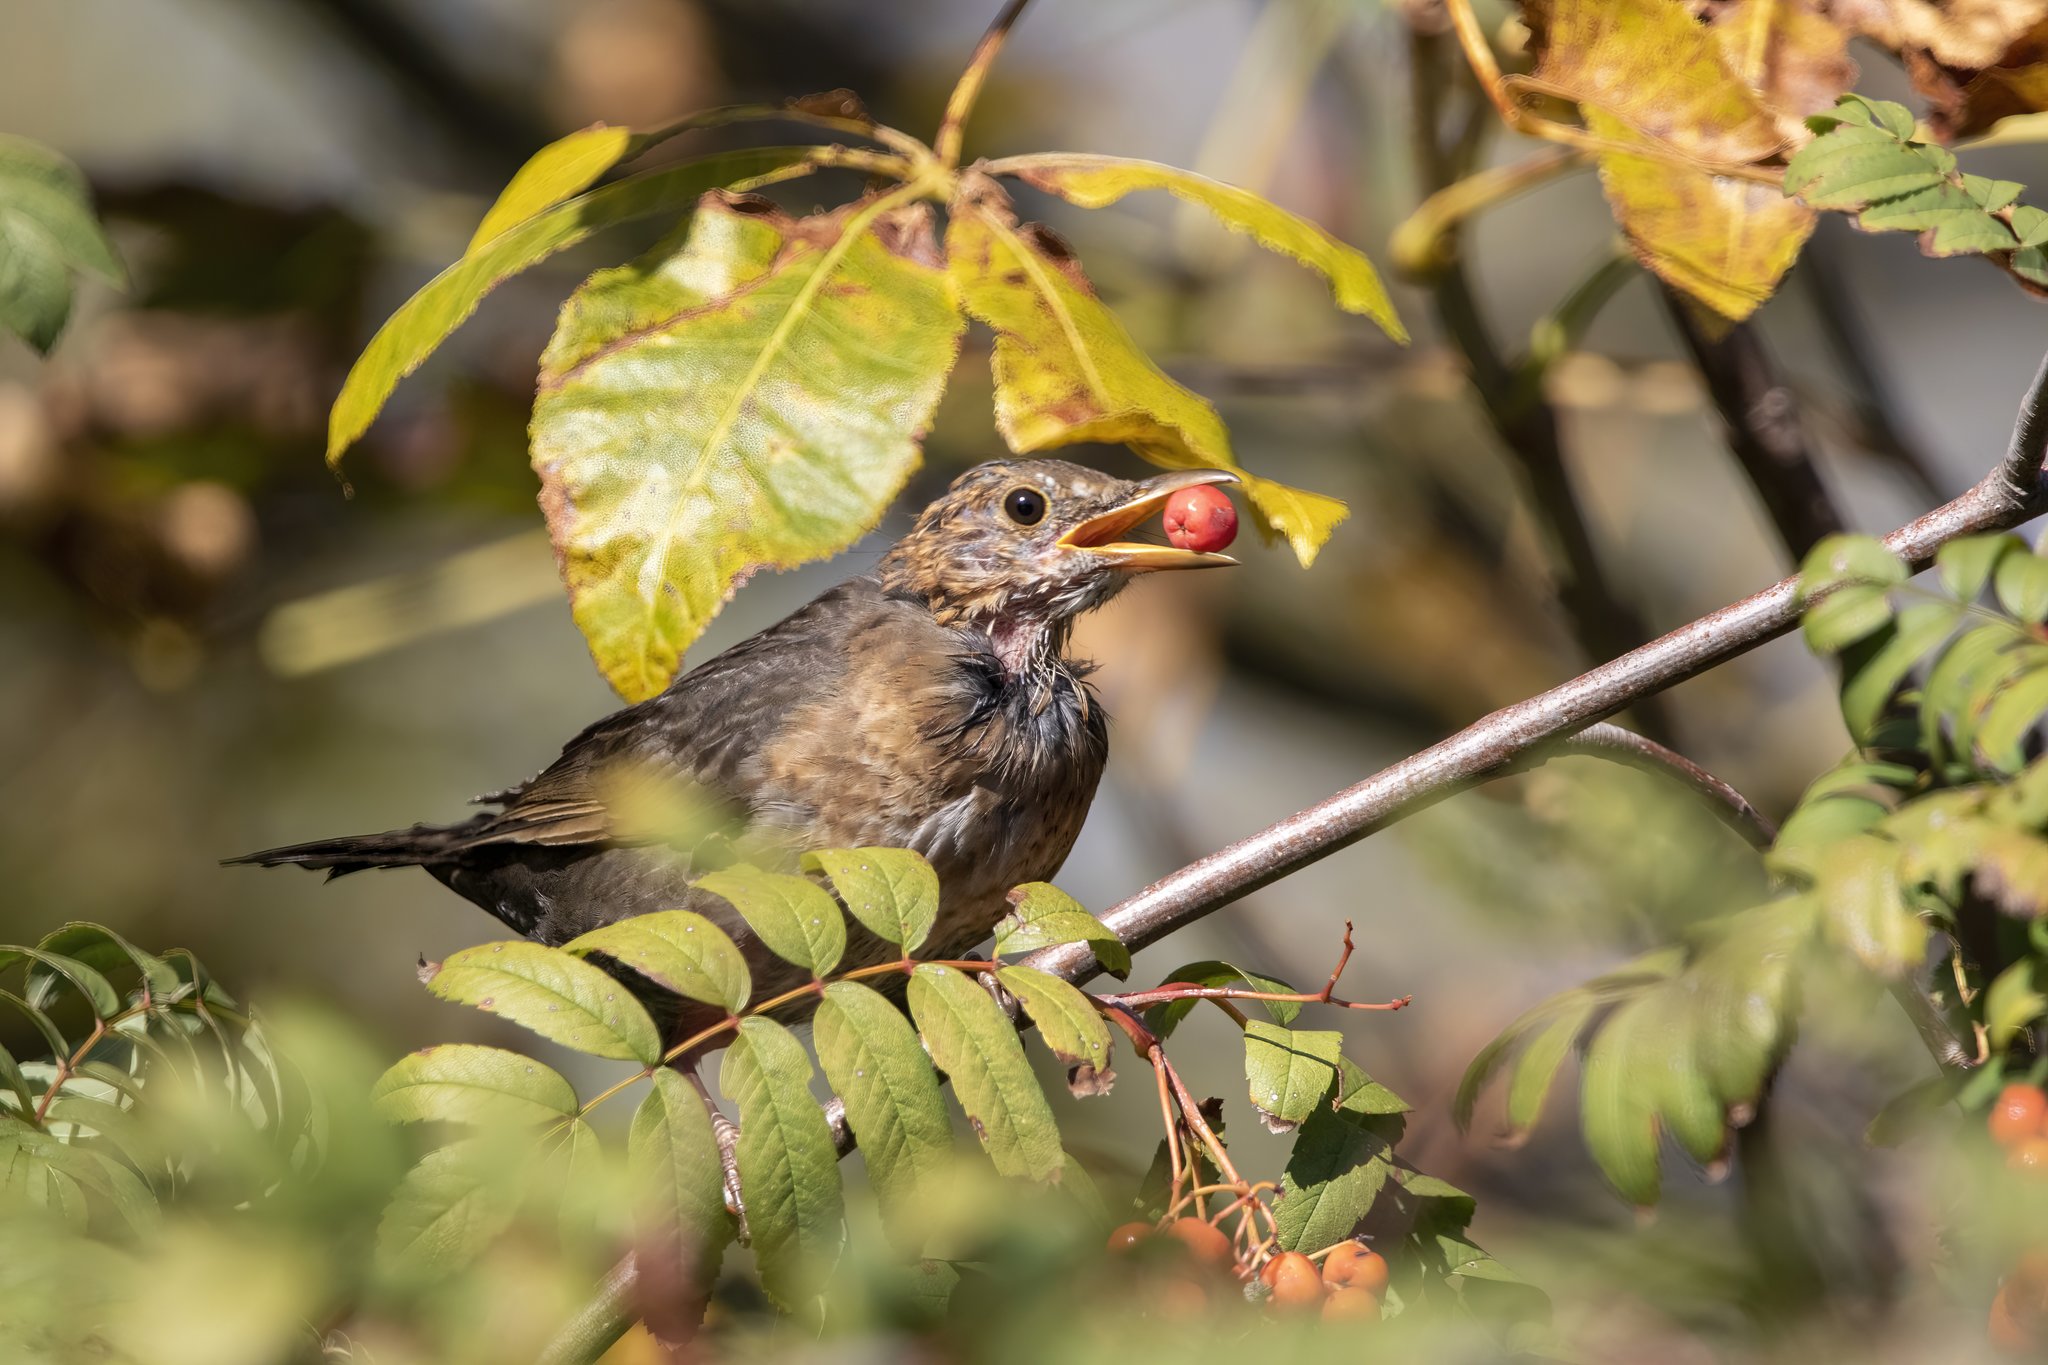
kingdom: Animalia
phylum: Chordata
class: Aves
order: Passeriformes
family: Turdidae
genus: Turdus
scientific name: Turdus merula
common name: Common blackbird
